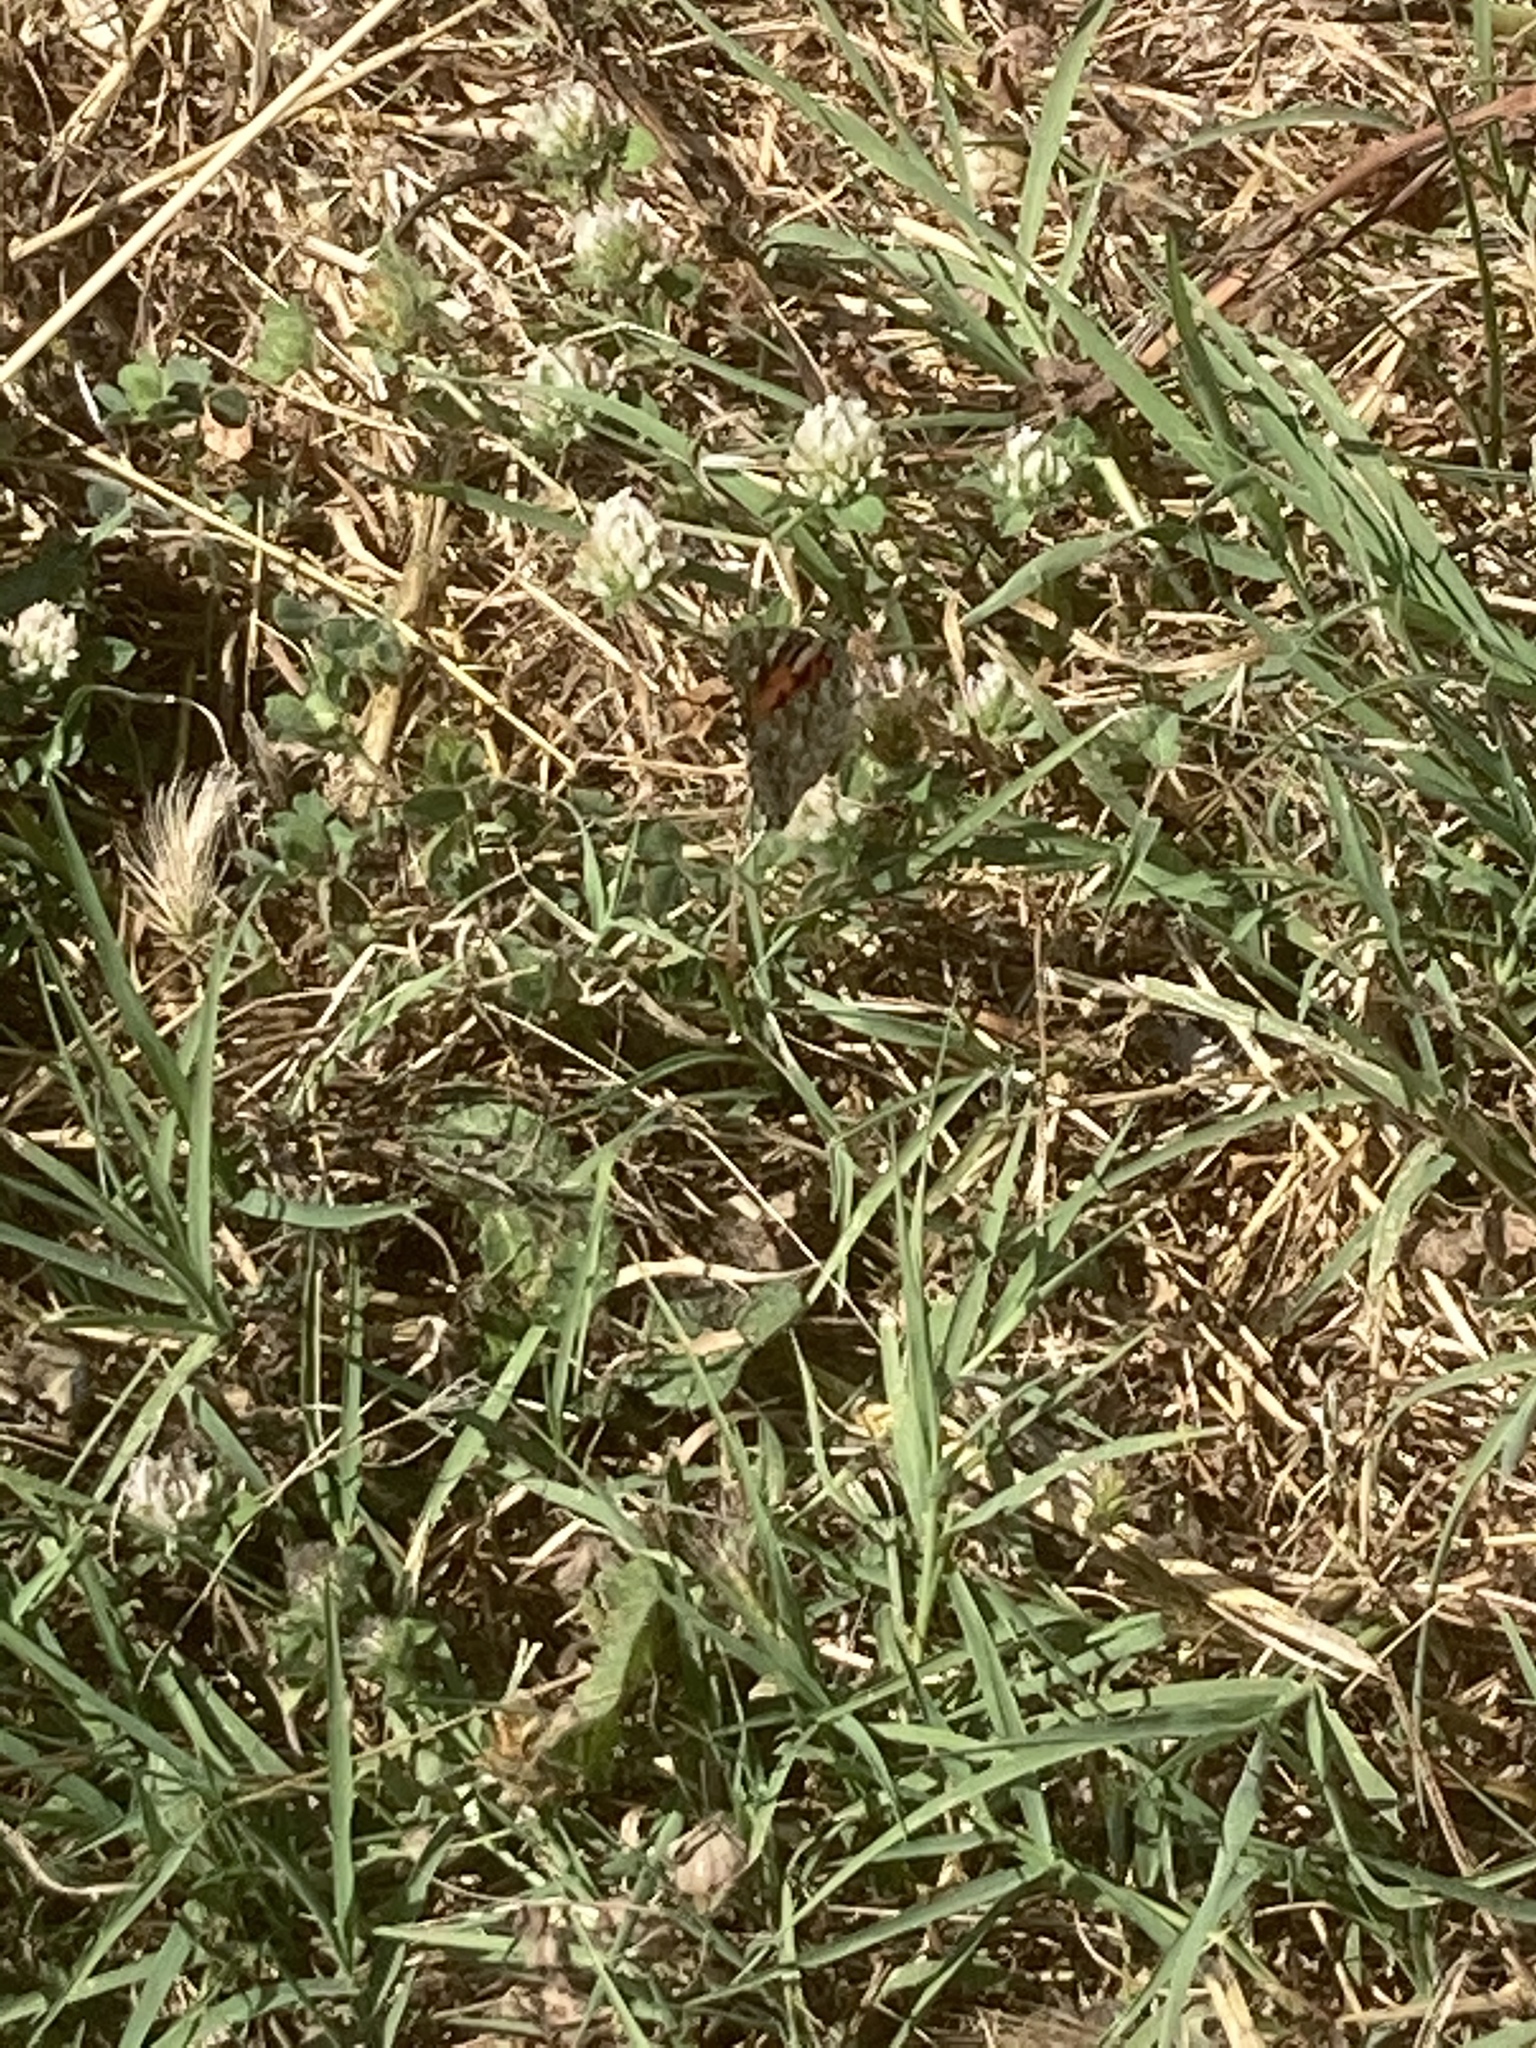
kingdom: Animalia
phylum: Arthropoda
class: Insecta
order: Lepidoptera
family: Nymphalidae
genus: Vanessa
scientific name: Vanessa cardui
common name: Painted lady
